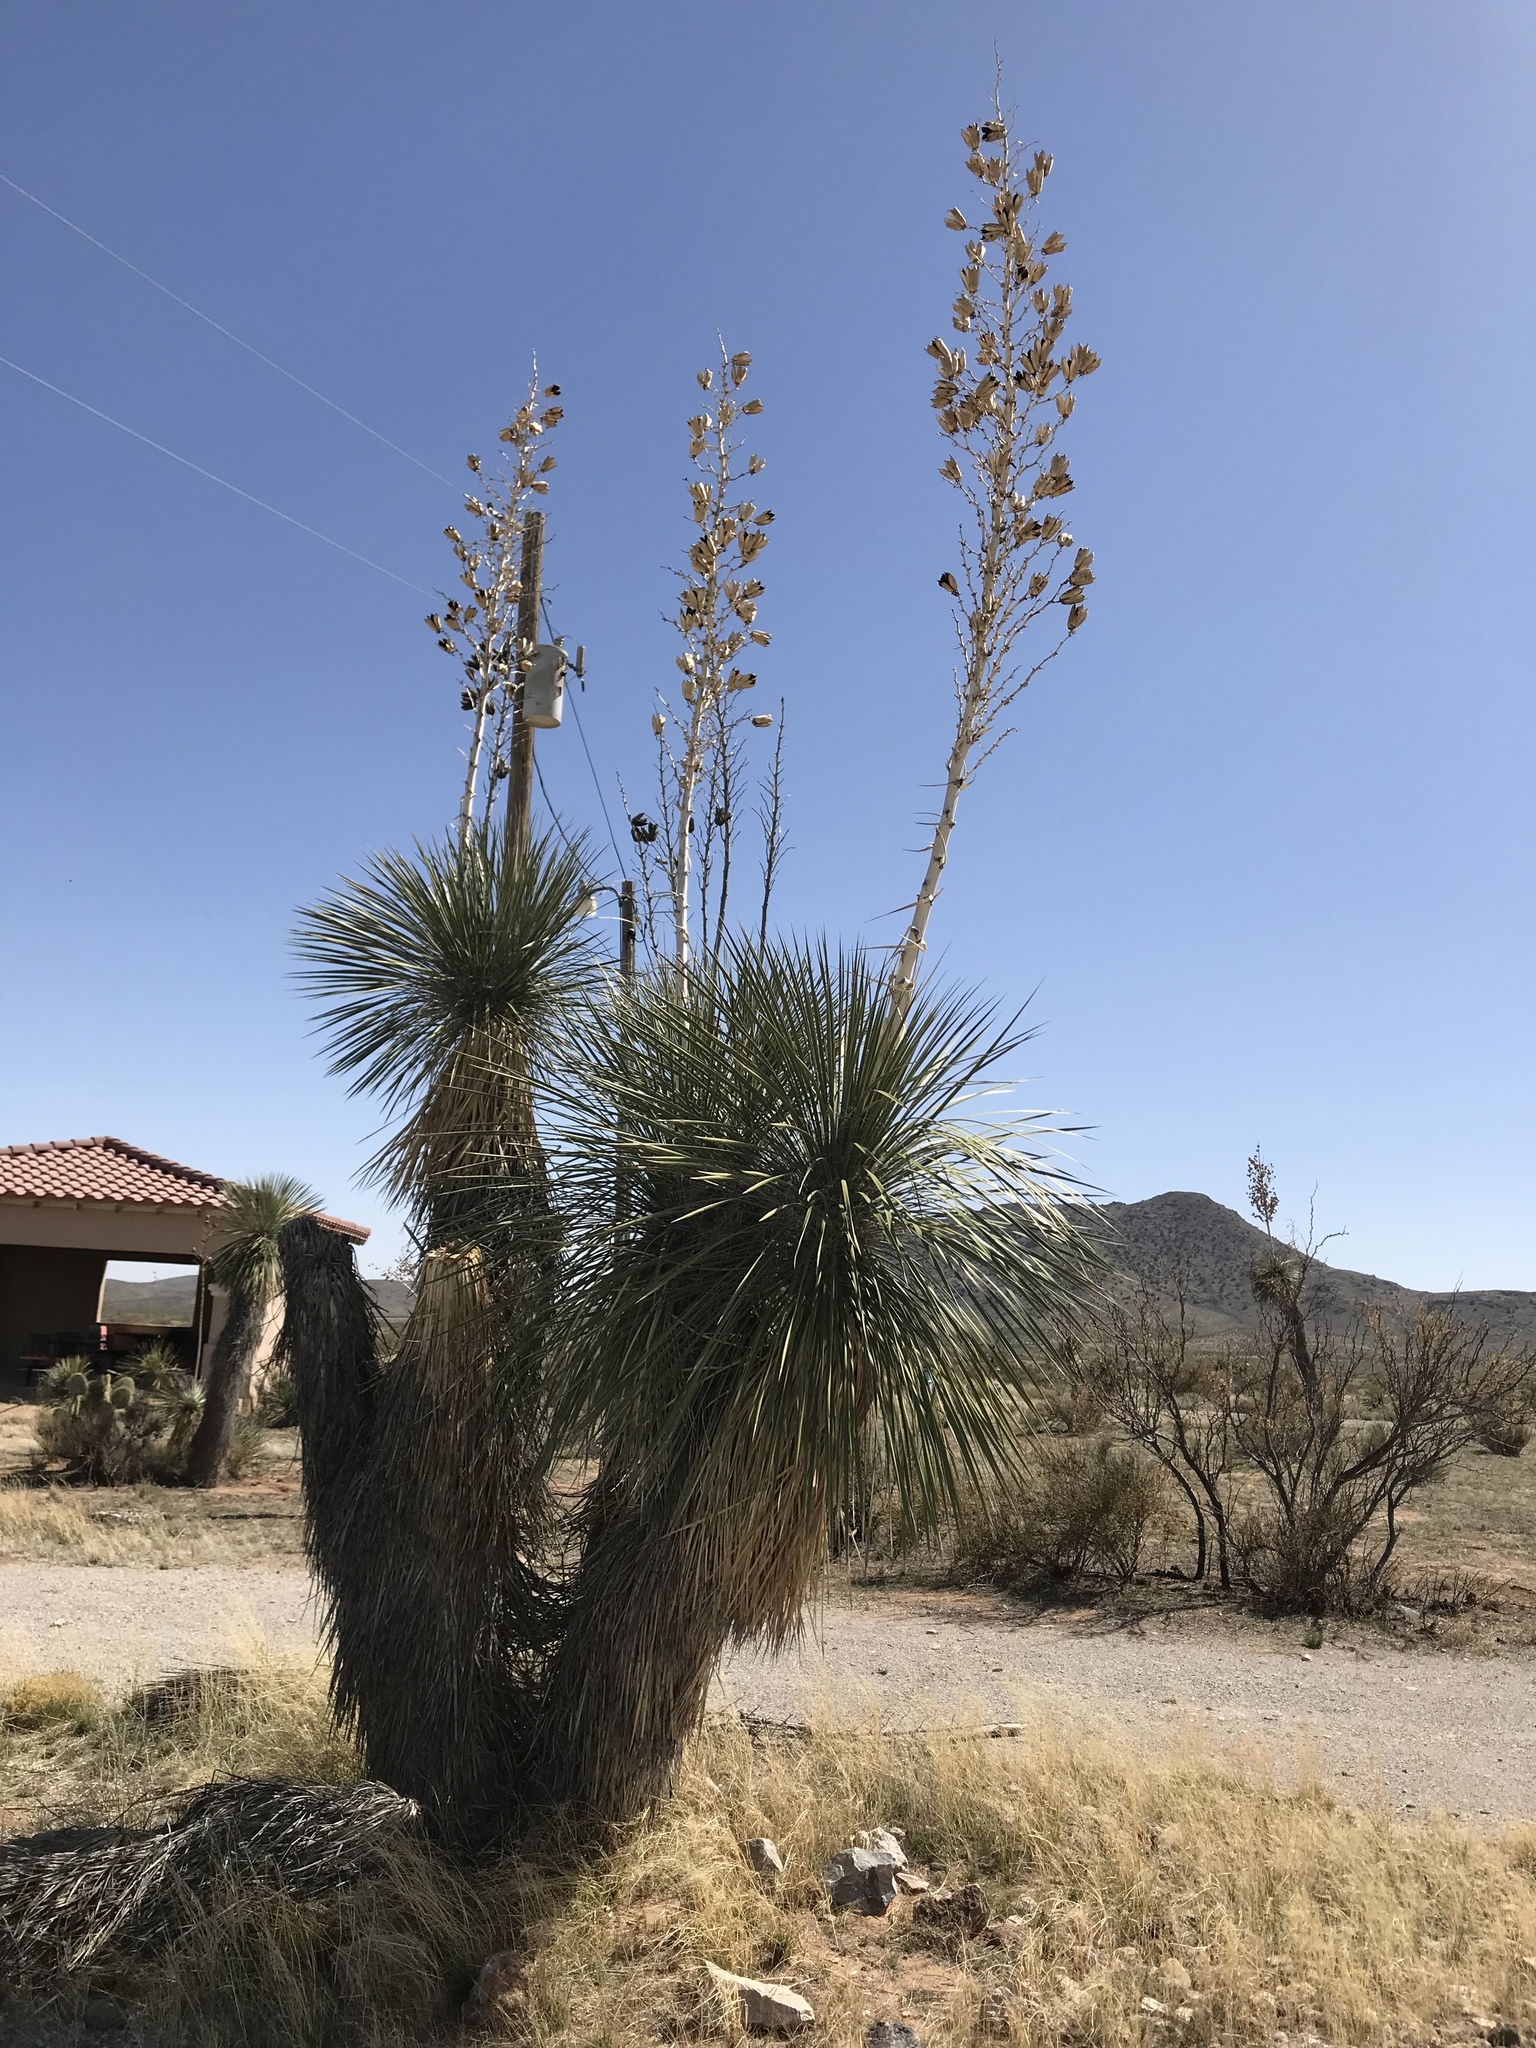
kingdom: Plantae
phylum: Tracheophyta
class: Liliopsida
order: Asparagales
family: Asparagaceae
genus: Yucca
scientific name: Yucca elata
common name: Palmella
